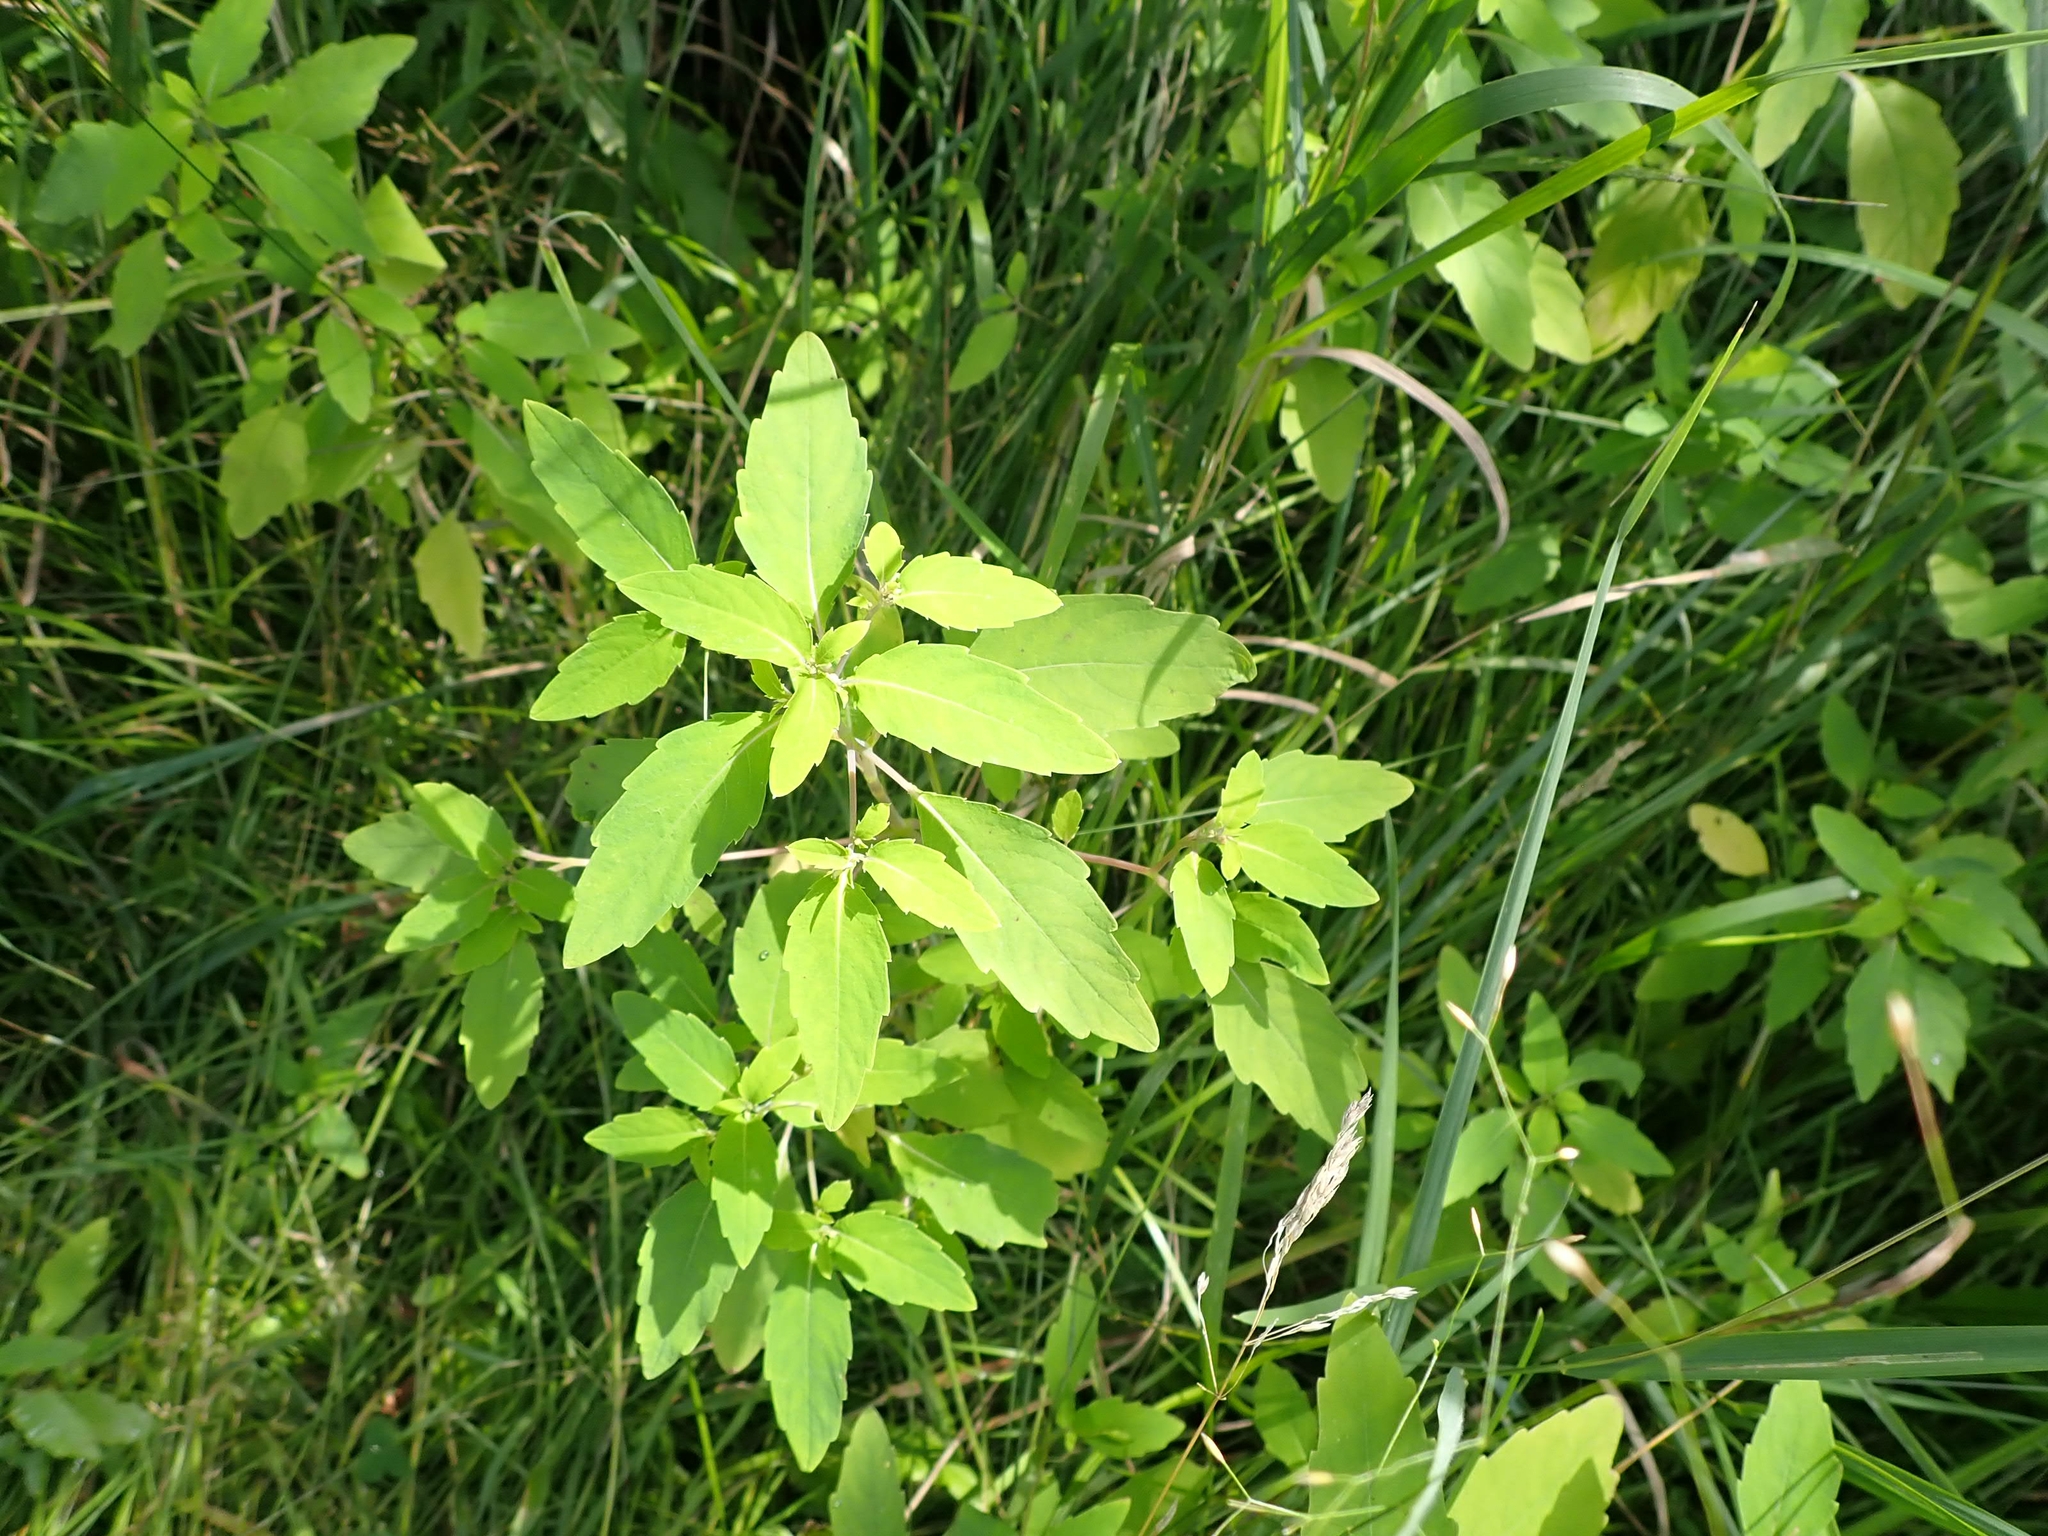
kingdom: Plantae
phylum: Tracheophyta
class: Magnoliopsida
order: Ericales
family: Balsaminaceae
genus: Impatiens
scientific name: Impatiens capensis
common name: Orange balsam
